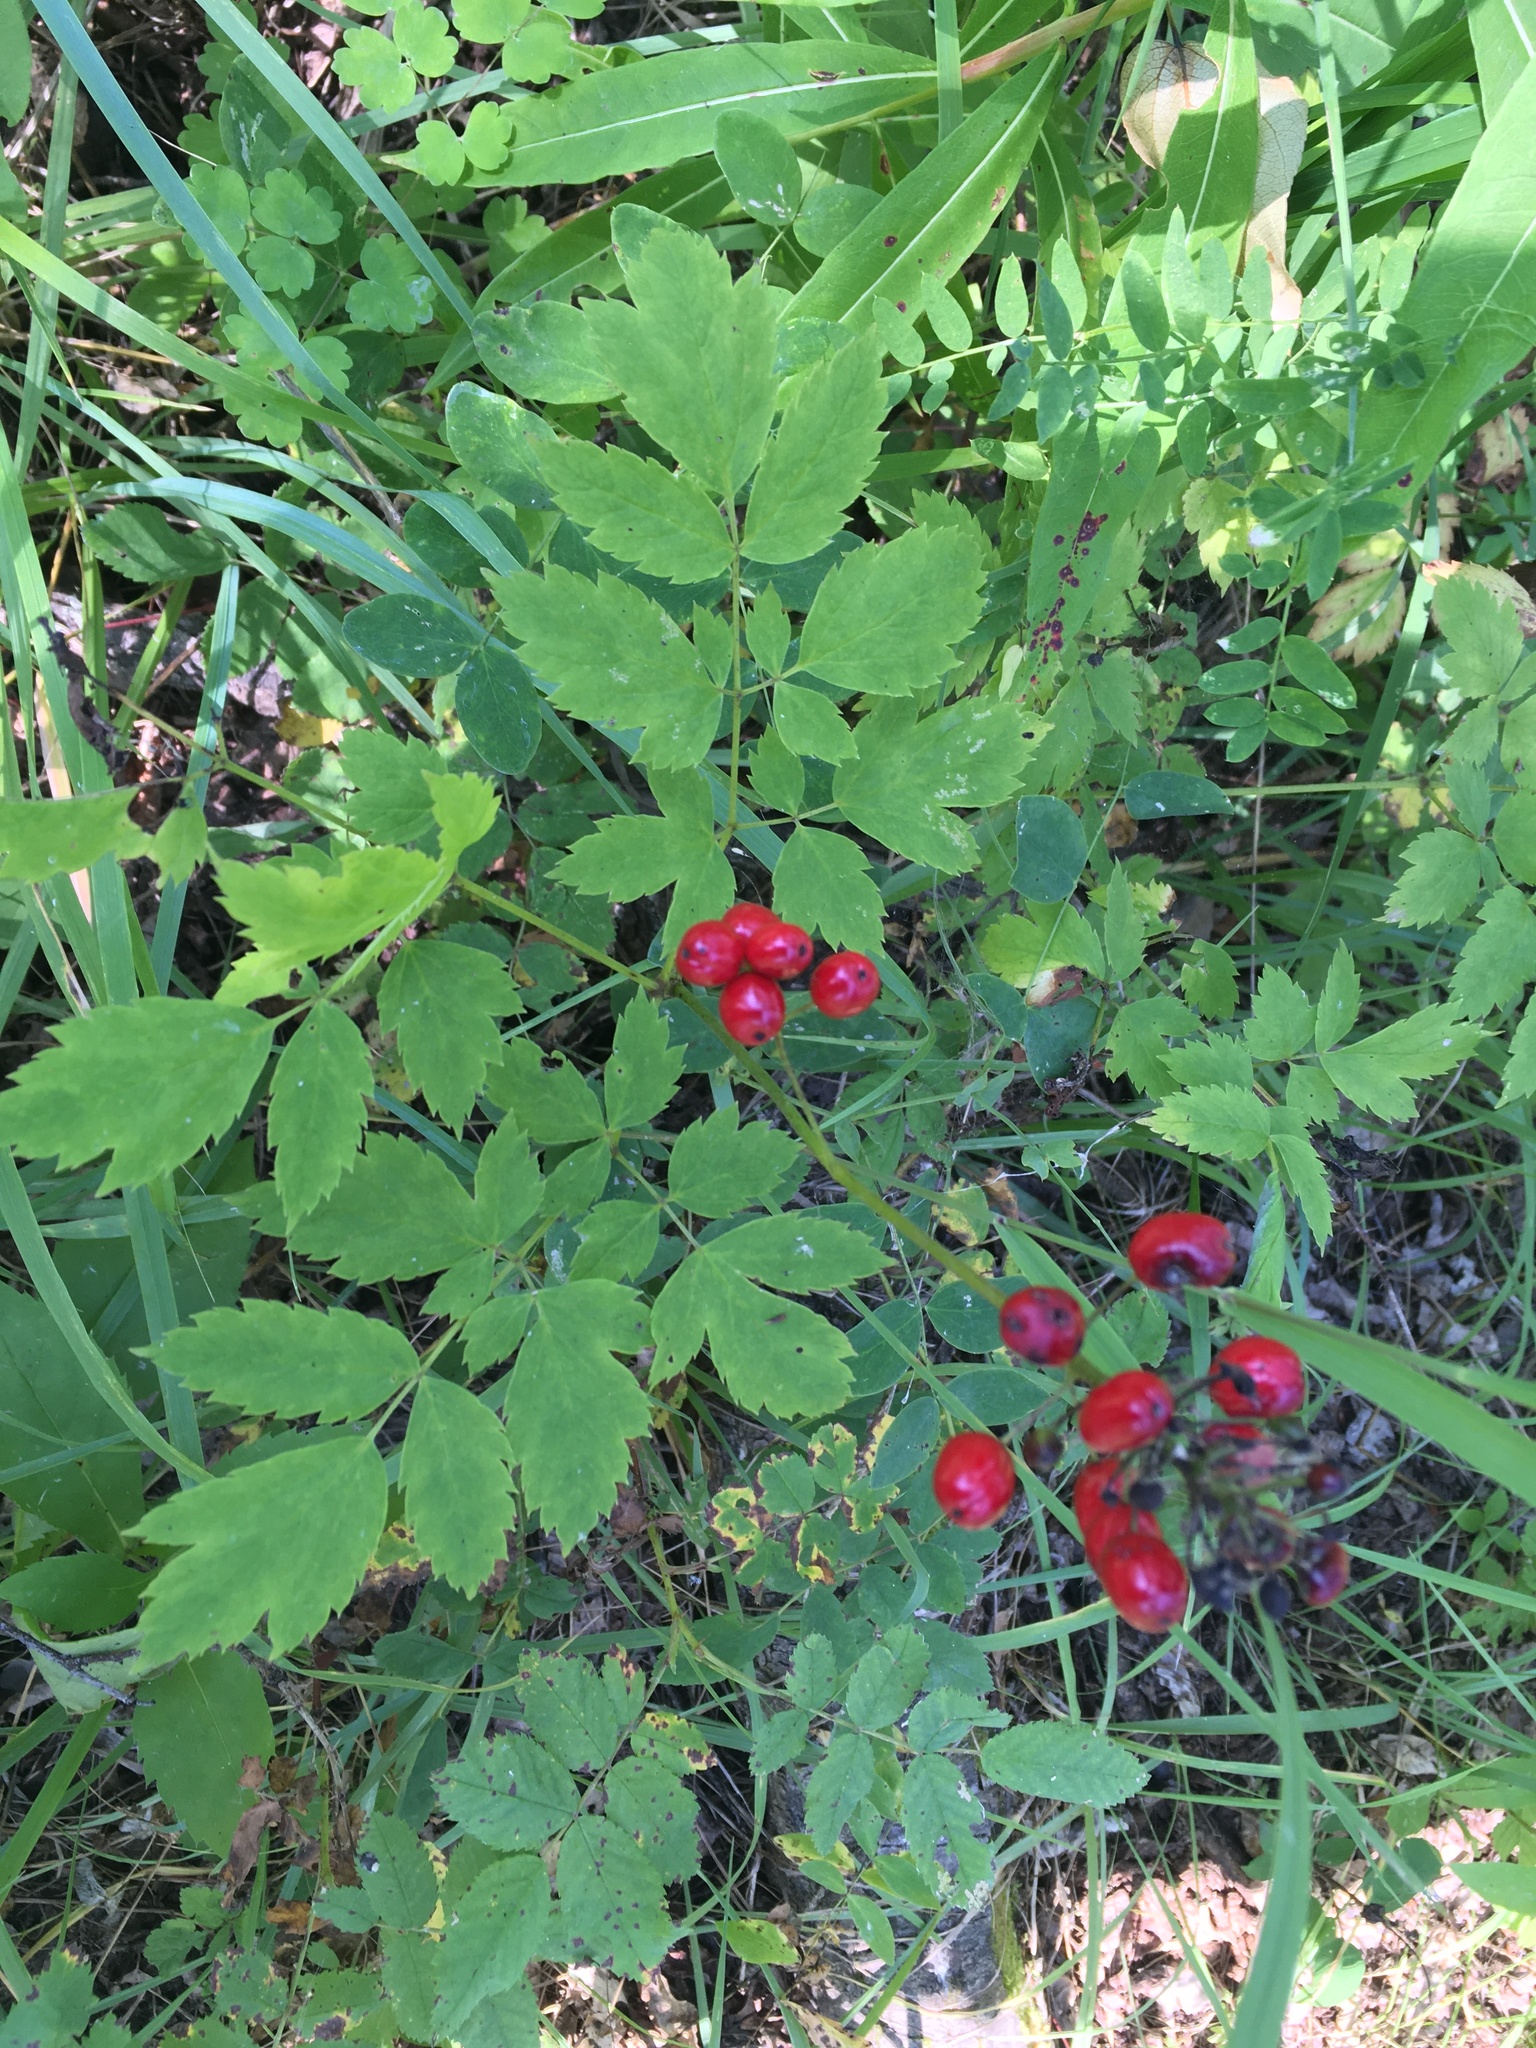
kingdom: Plantae
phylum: Tracheophyta
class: Magnoliopsida
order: Ranunculales
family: Ranunculaceae
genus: Actaea
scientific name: Actaea rubra
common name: Red baneberry
